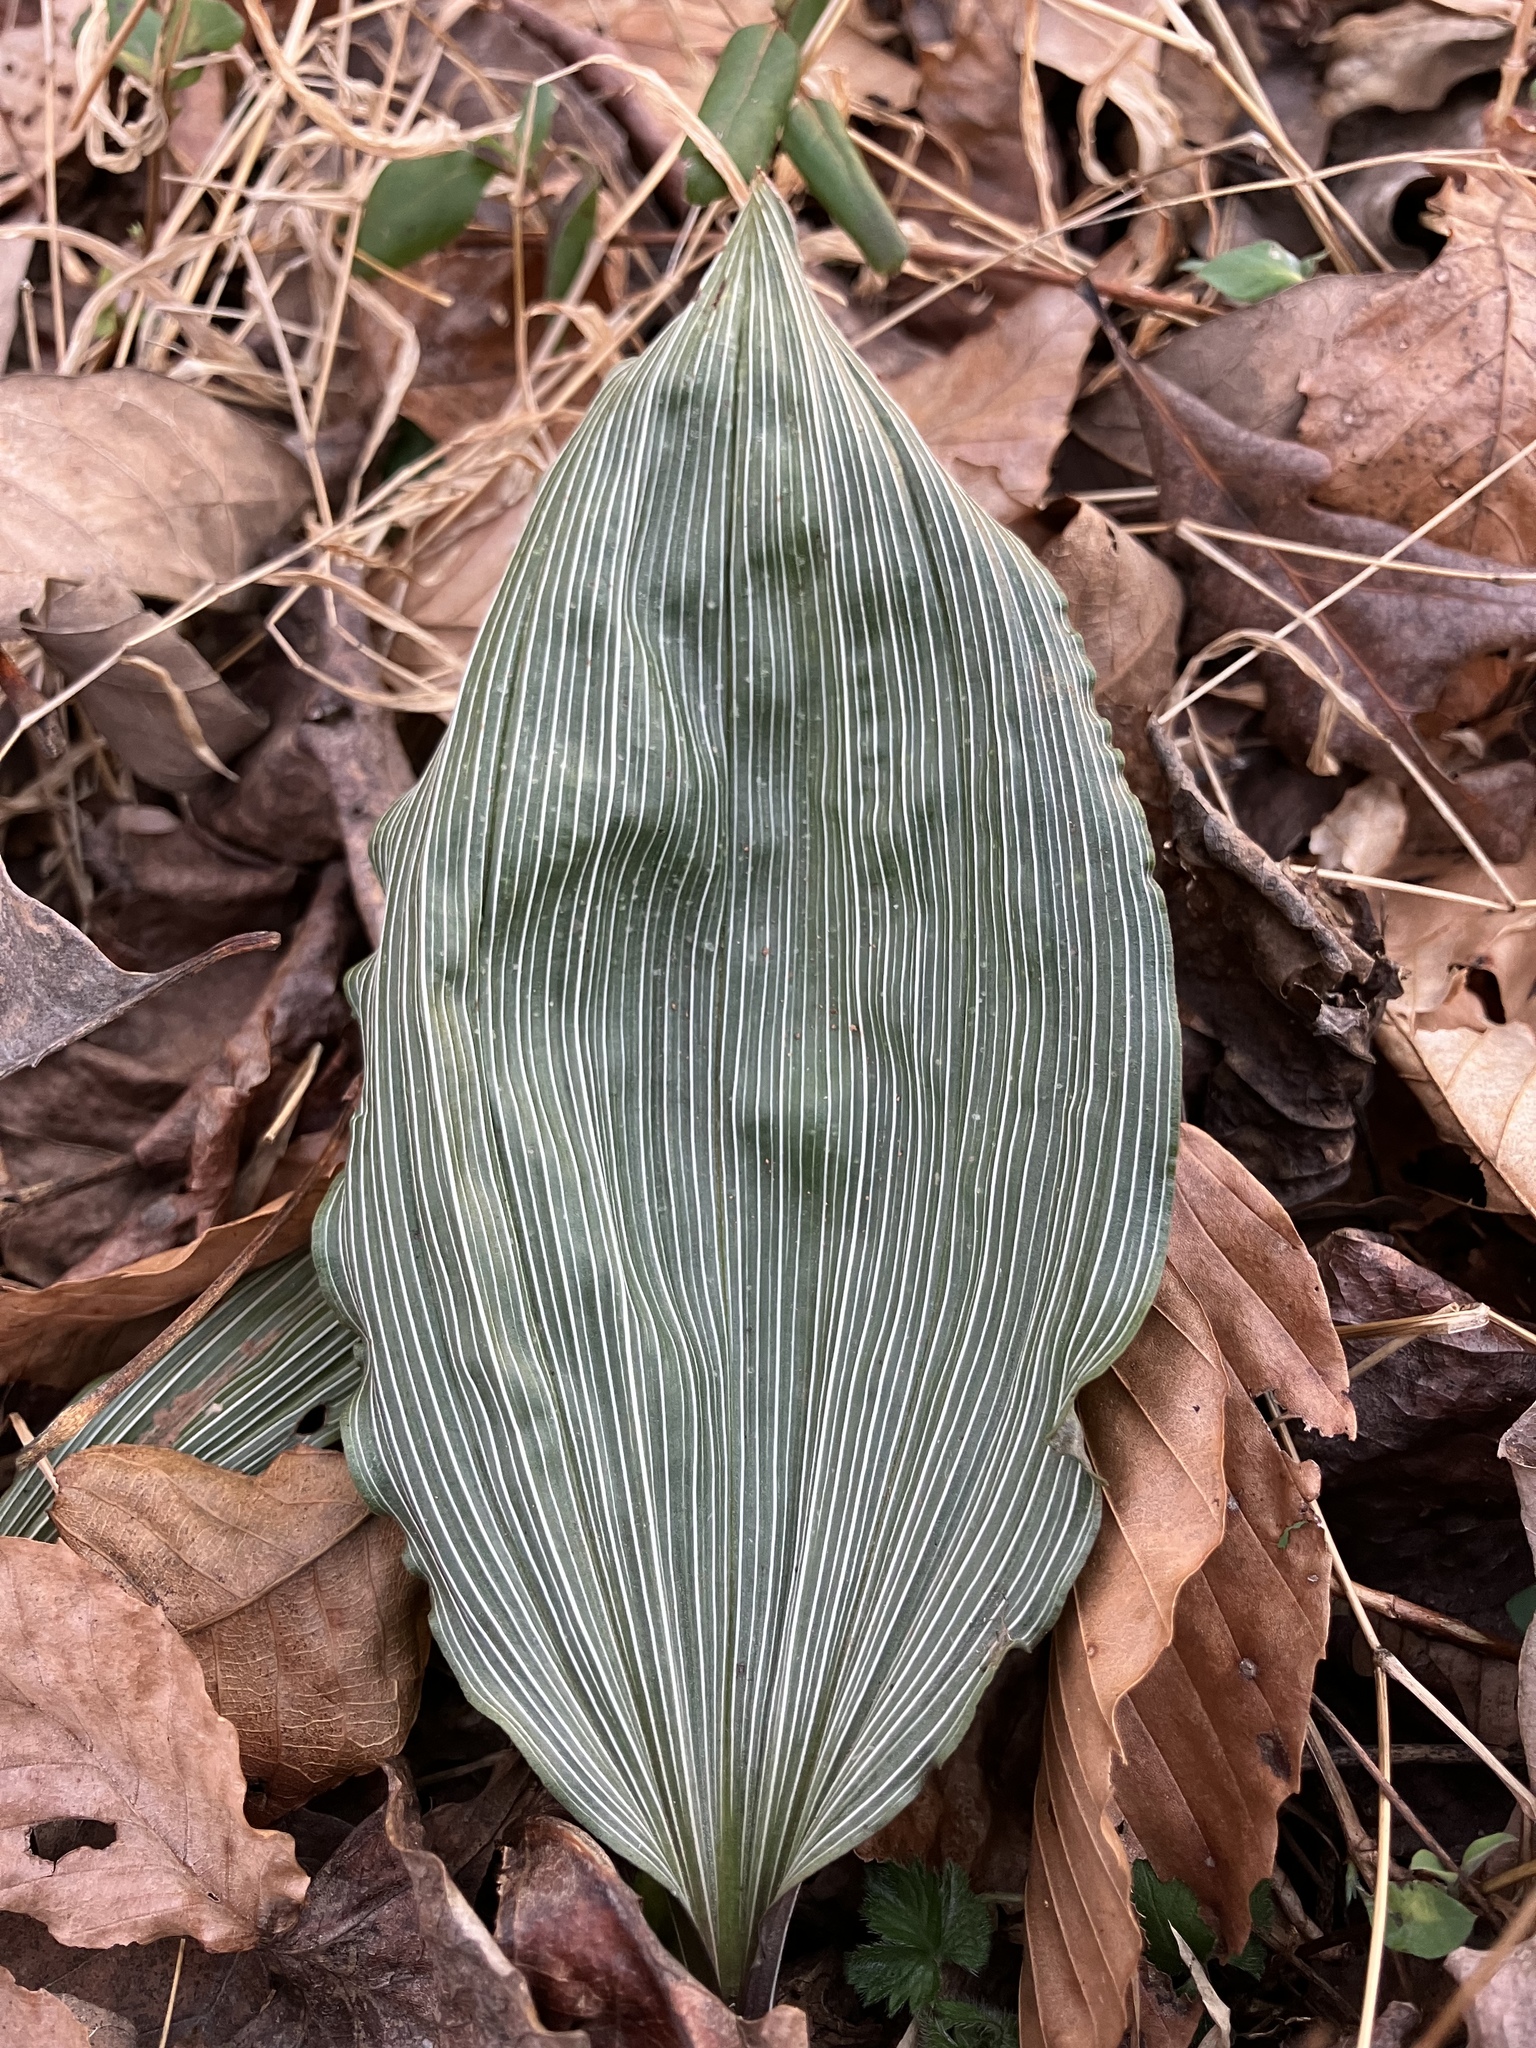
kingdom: Plantae
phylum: Tracheophyta
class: Liliopsida
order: Asparagales
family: Orchidaceae
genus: Aplectrum
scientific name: Aplectrum hyemale
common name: Adam-and-eve
